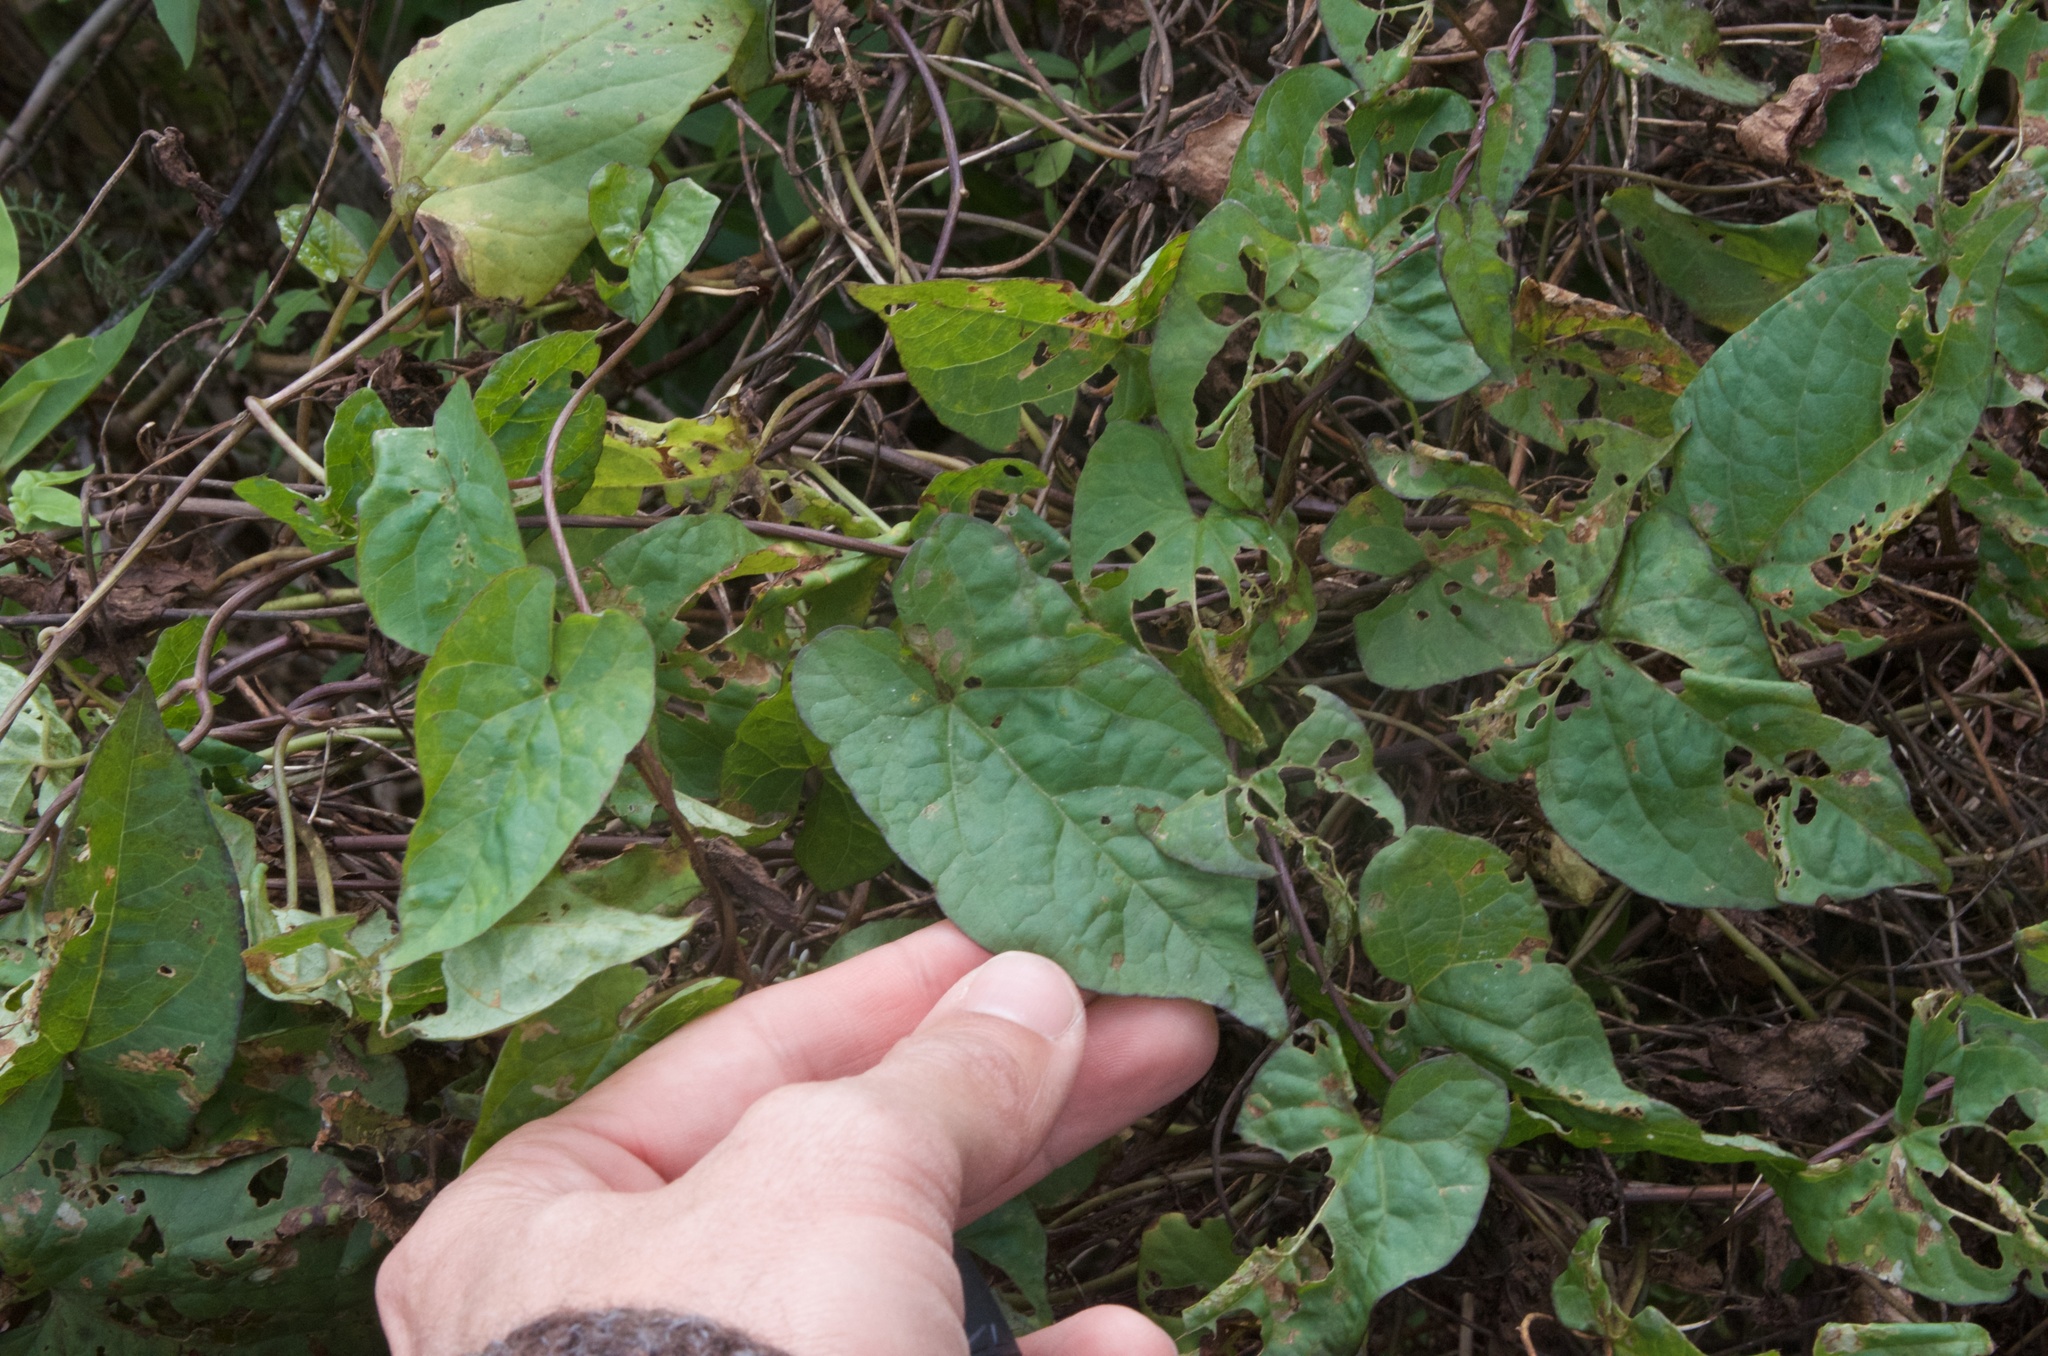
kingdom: Plantae
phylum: Tracheophyta
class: Magnoliopsida
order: Solanales
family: Convolvulaceae
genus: Calystegia
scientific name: Calystegia sepium
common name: Hedge bindweed
